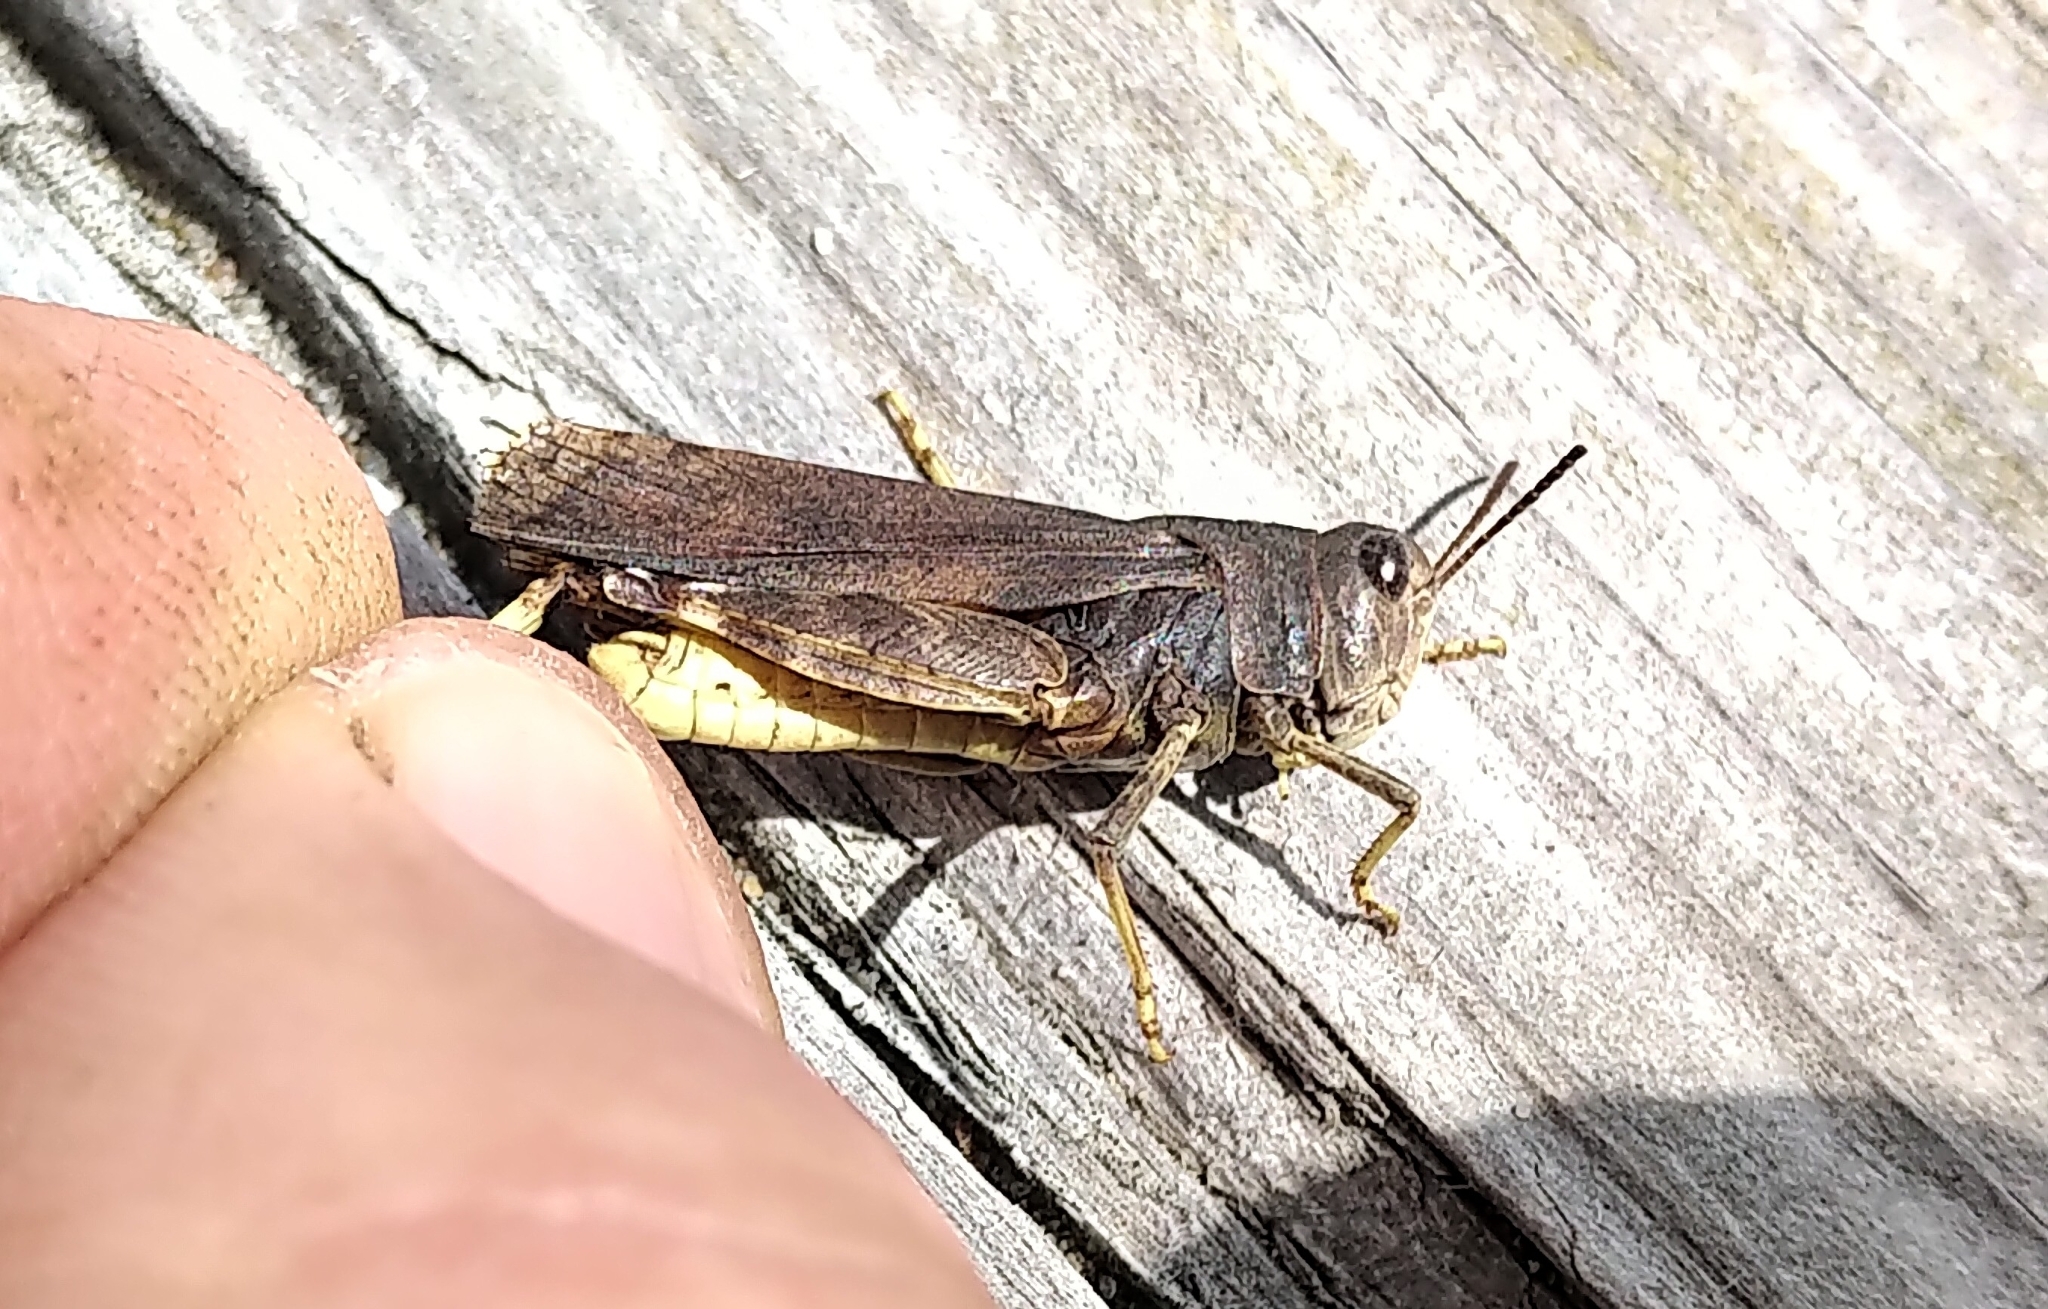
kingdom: Animalia
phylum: Arthropoda
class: Insecta
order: Orthoptera
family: Acrididae
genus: Arphia
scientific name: Arphia conspersa
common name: Speckle-winged rangeland grasshopper
